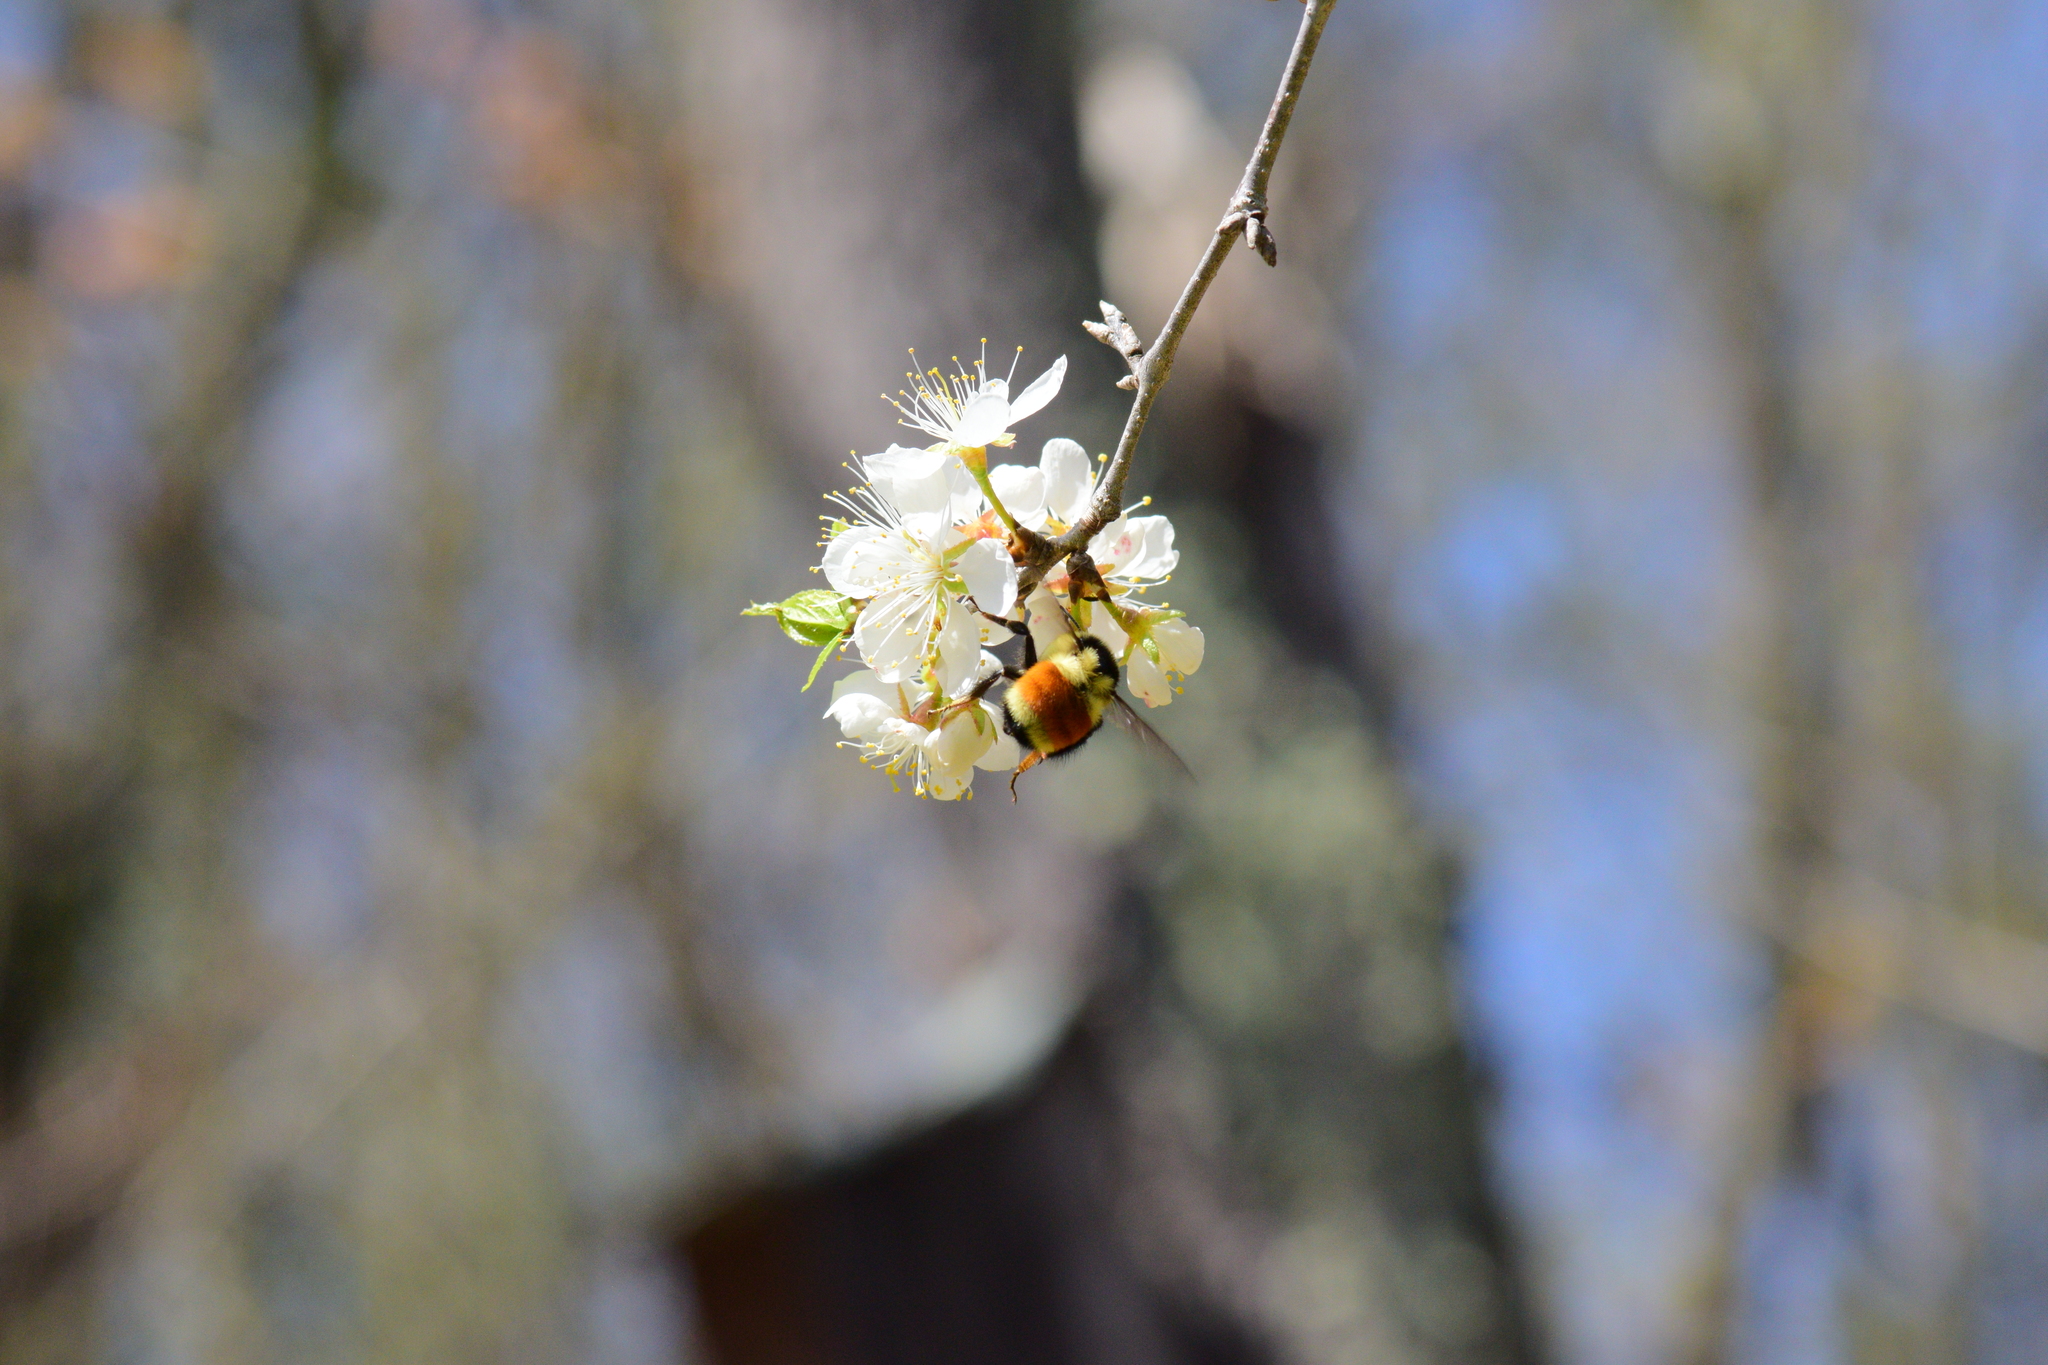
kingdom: Animalia
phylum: Arthropoda
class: Insecta
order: Hymenoptera
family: Apidae
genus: Bombus
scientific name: Bombus ternarius
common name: Tri-colored bumble bee
